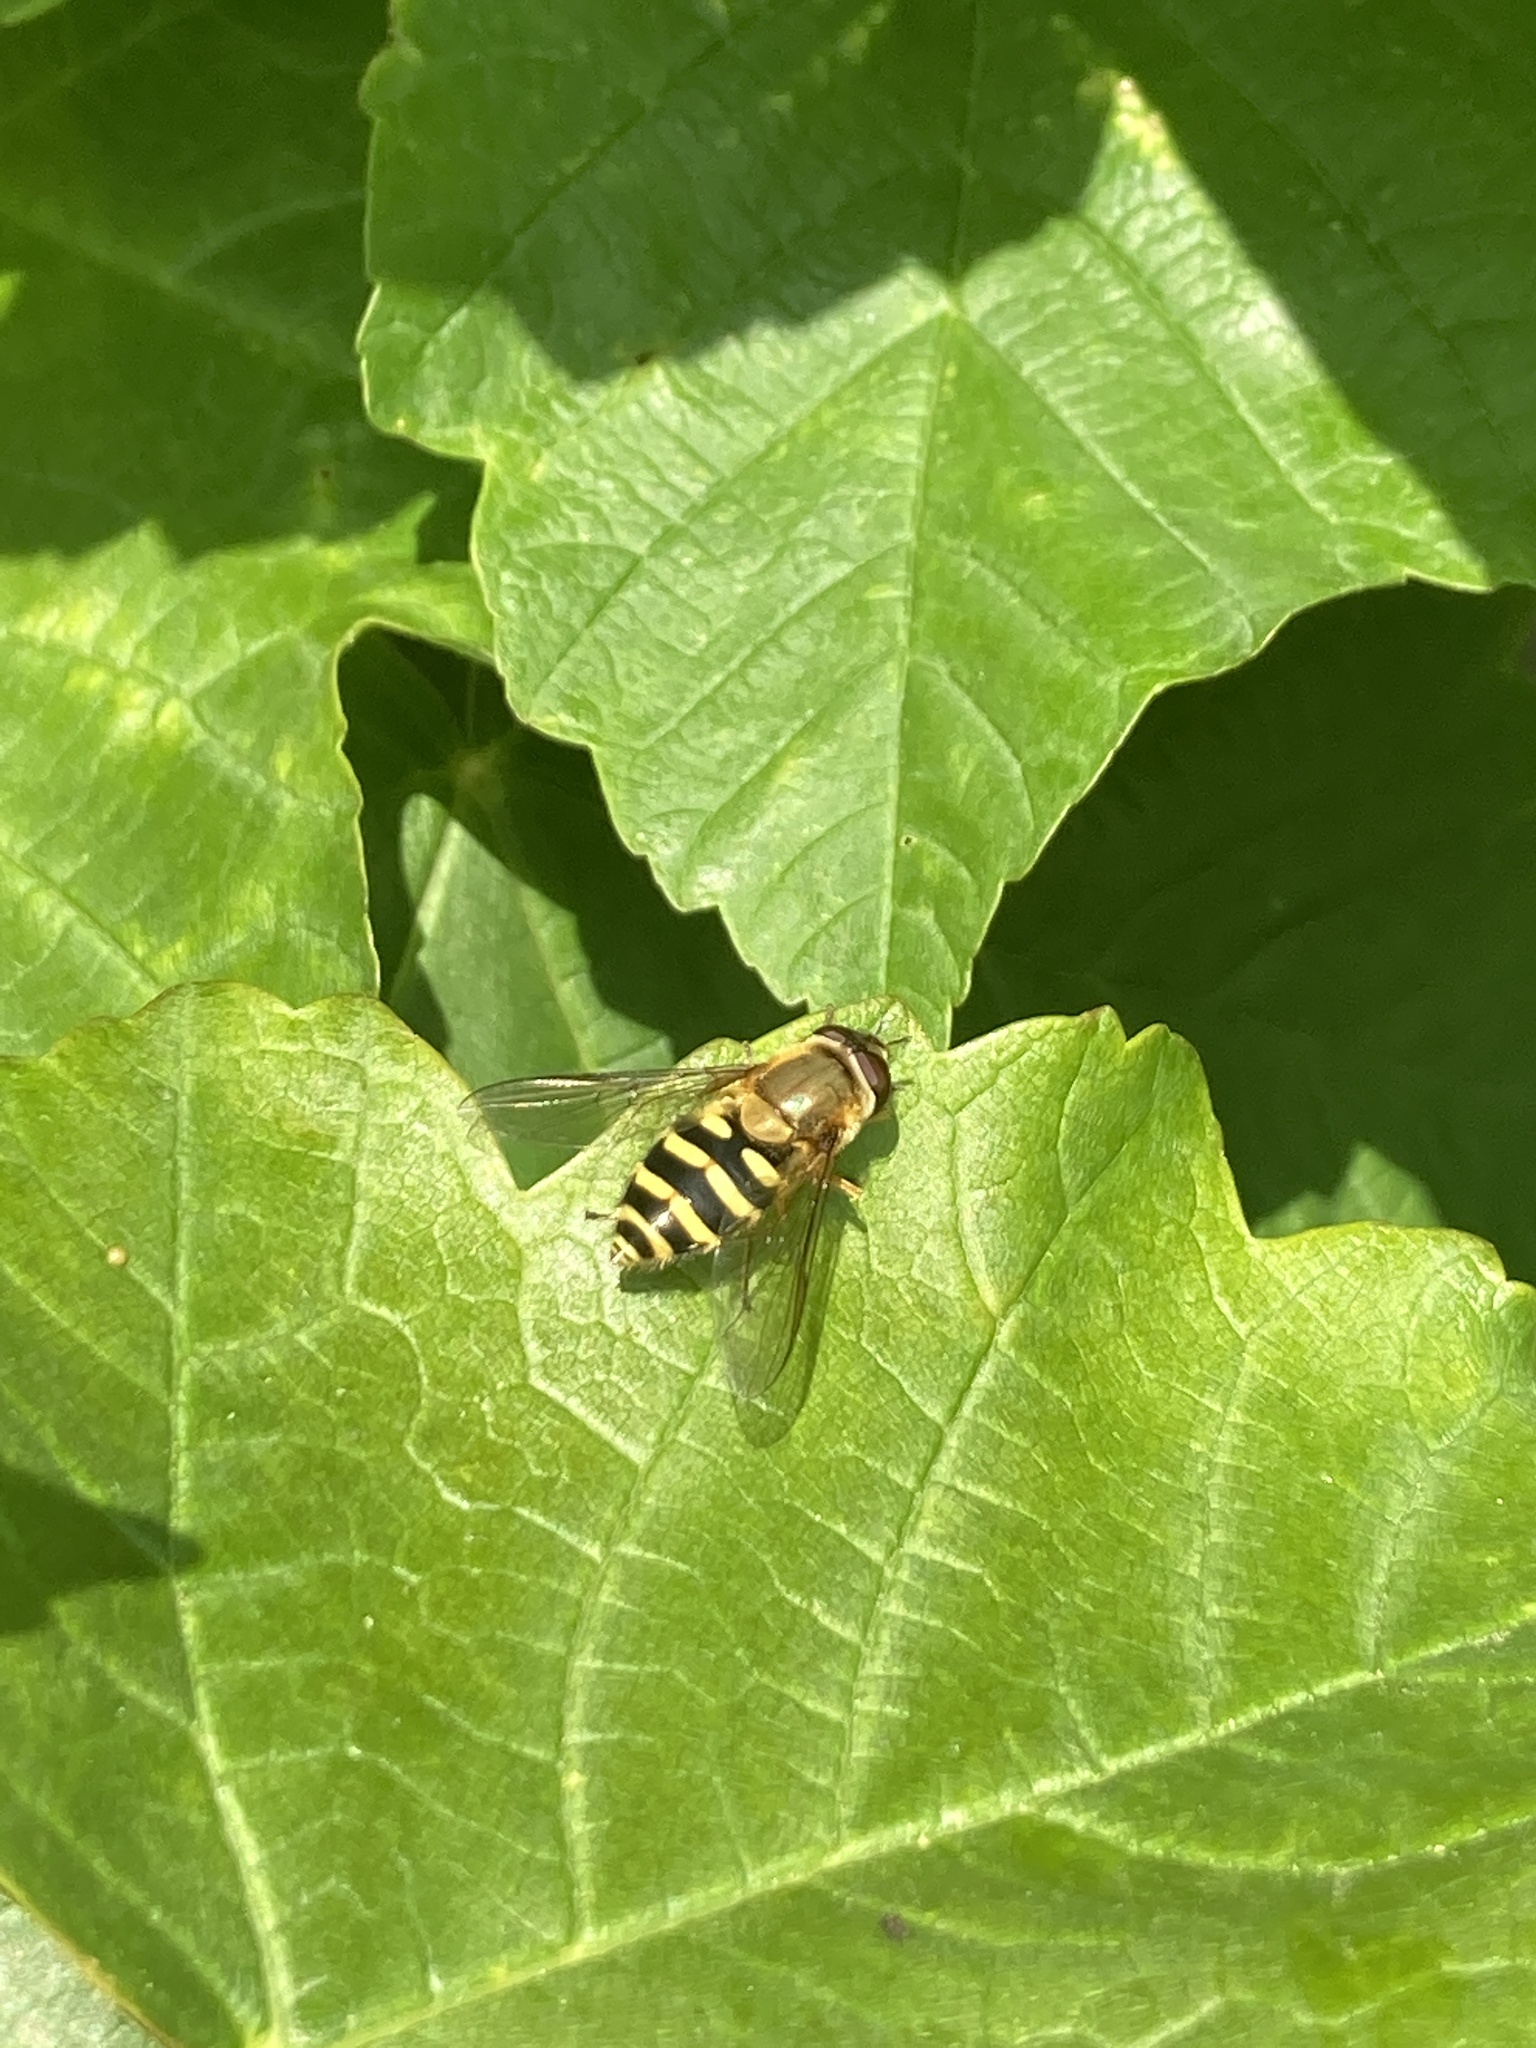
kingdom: Animalia
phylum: Arthropoda
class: Insecta
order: Diptera
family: Syrphidae
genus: Syrphus
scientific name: Syrphus
